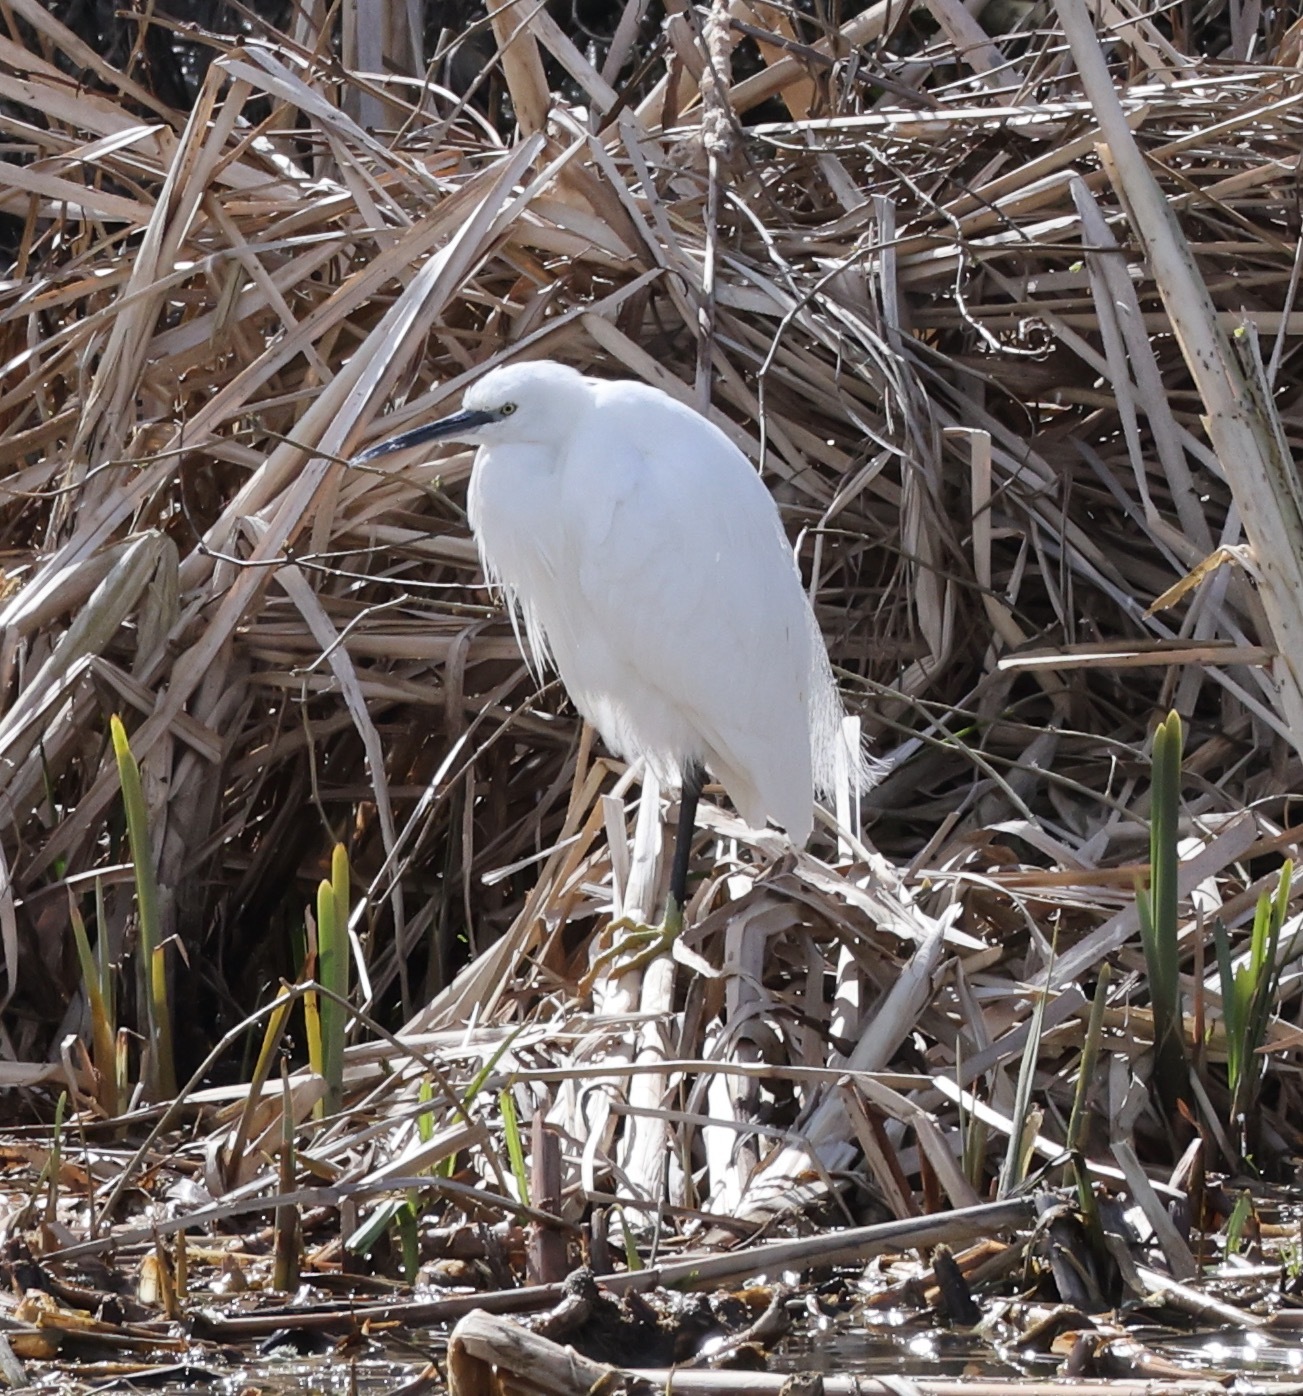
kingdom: Animalia
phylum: Chordata
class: Aves
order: Pelecaniformes
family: Ardeidae
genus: Egretta
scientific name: Egretta garzetta
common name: Little egret
